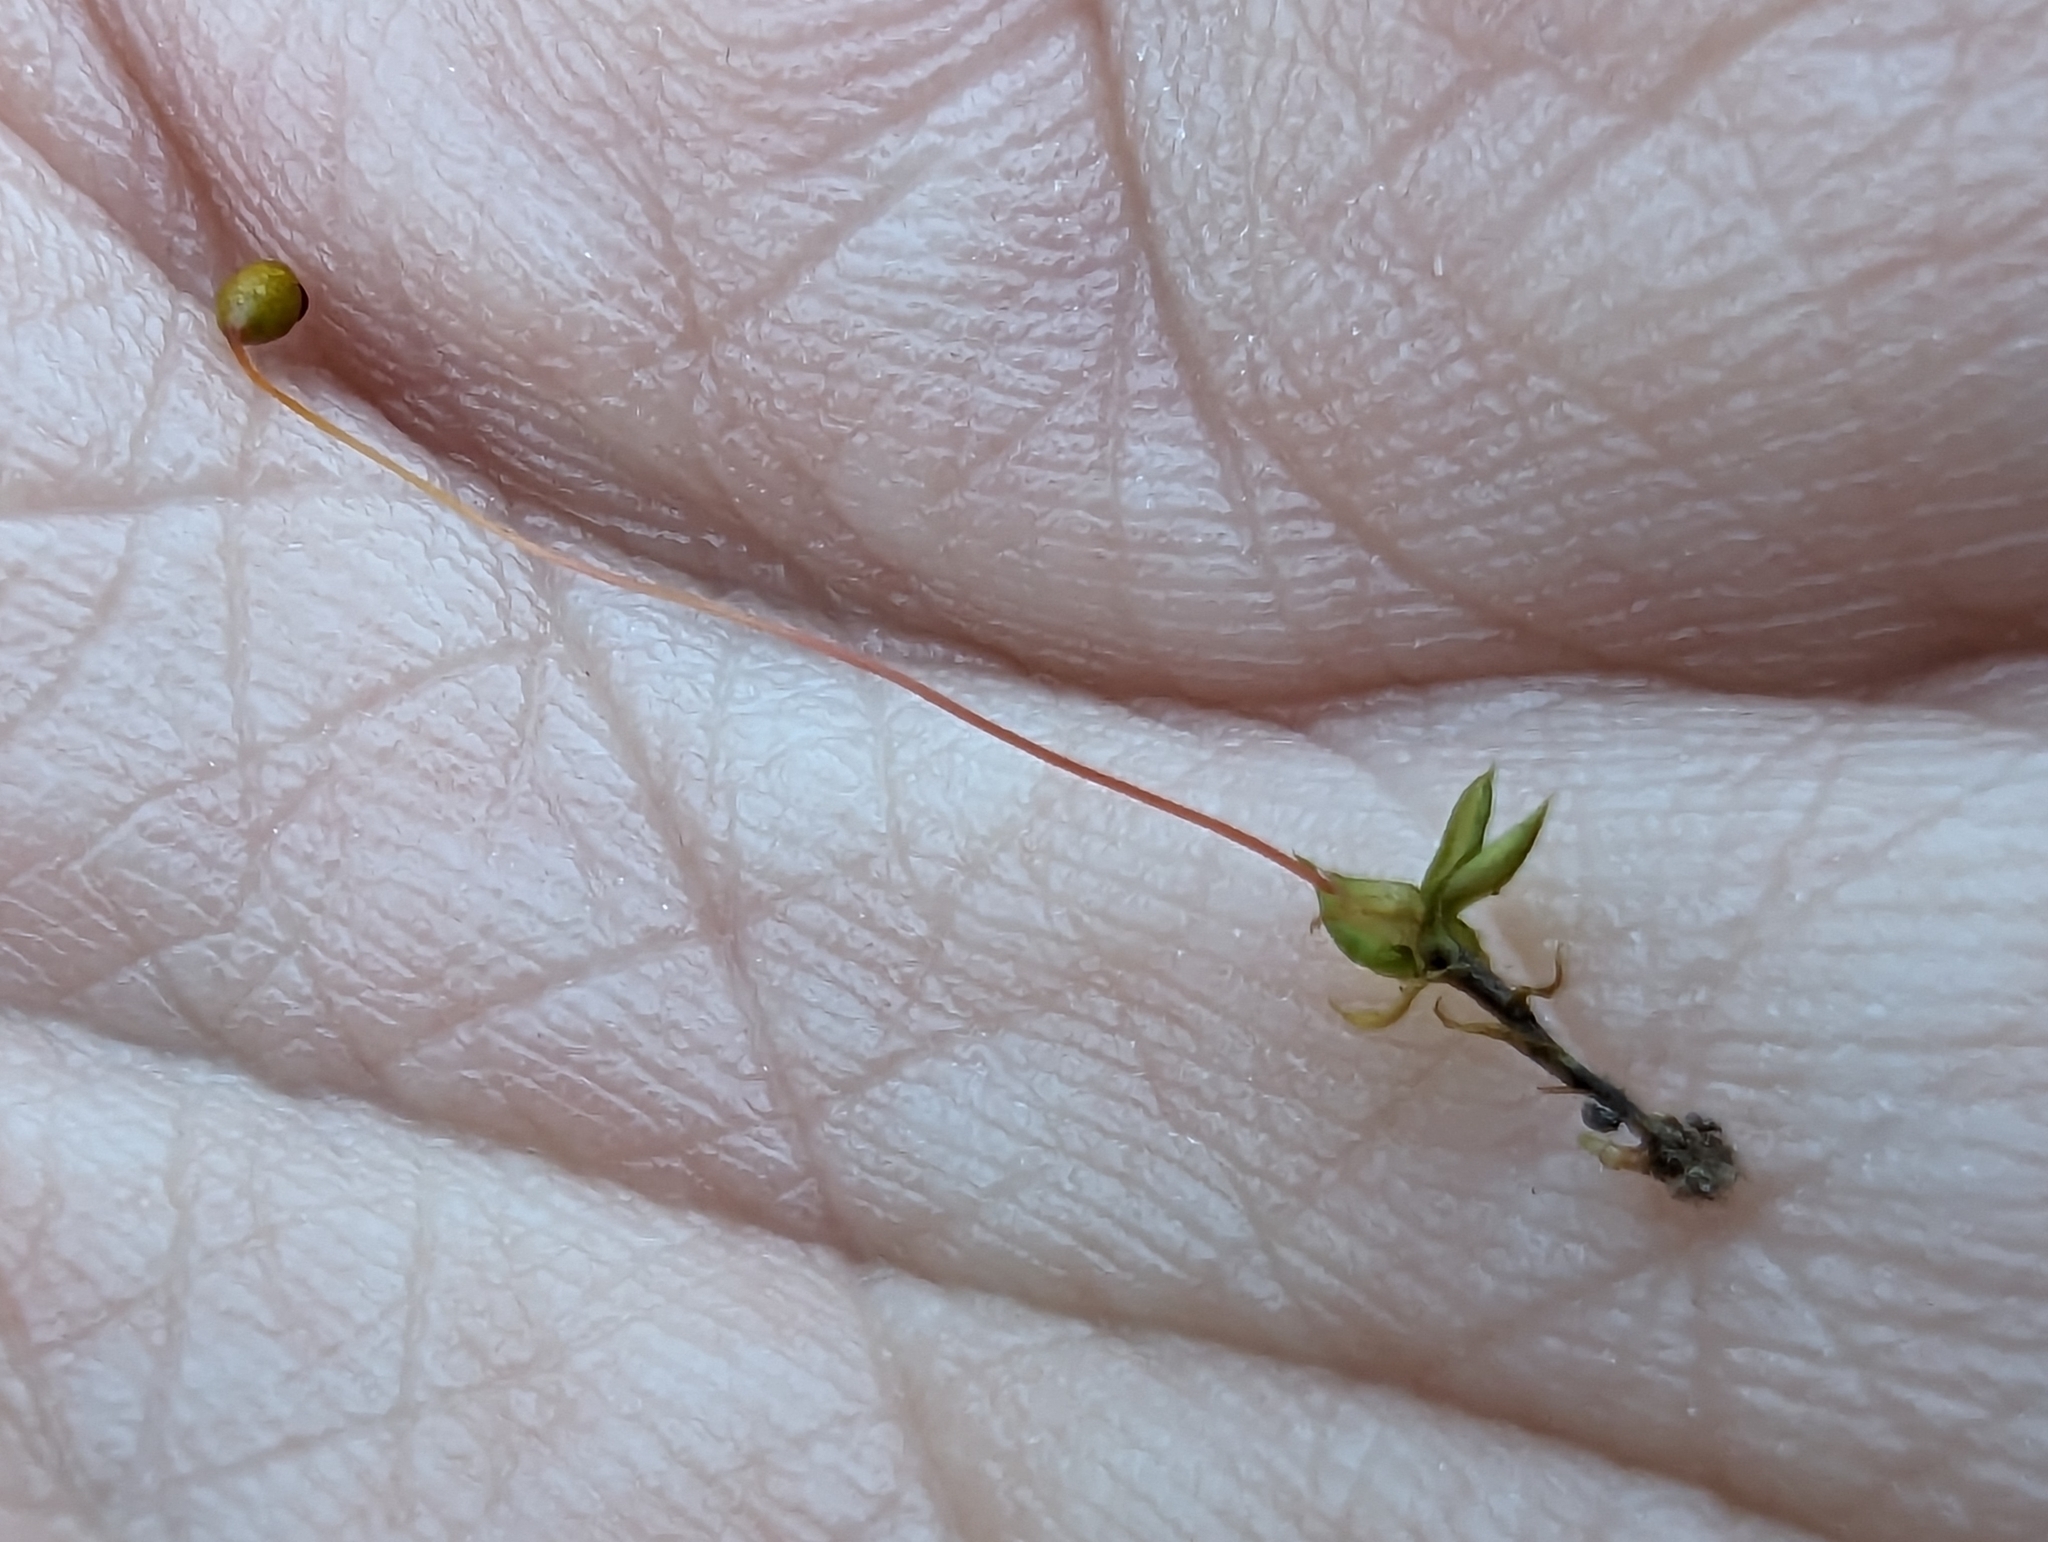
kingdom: Plantae
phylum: Bryophyta
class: Bryopsida
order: Funariales
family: Funariaceae
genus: Funaria
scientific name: Funaria hygrometrica
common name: Common cord moss
